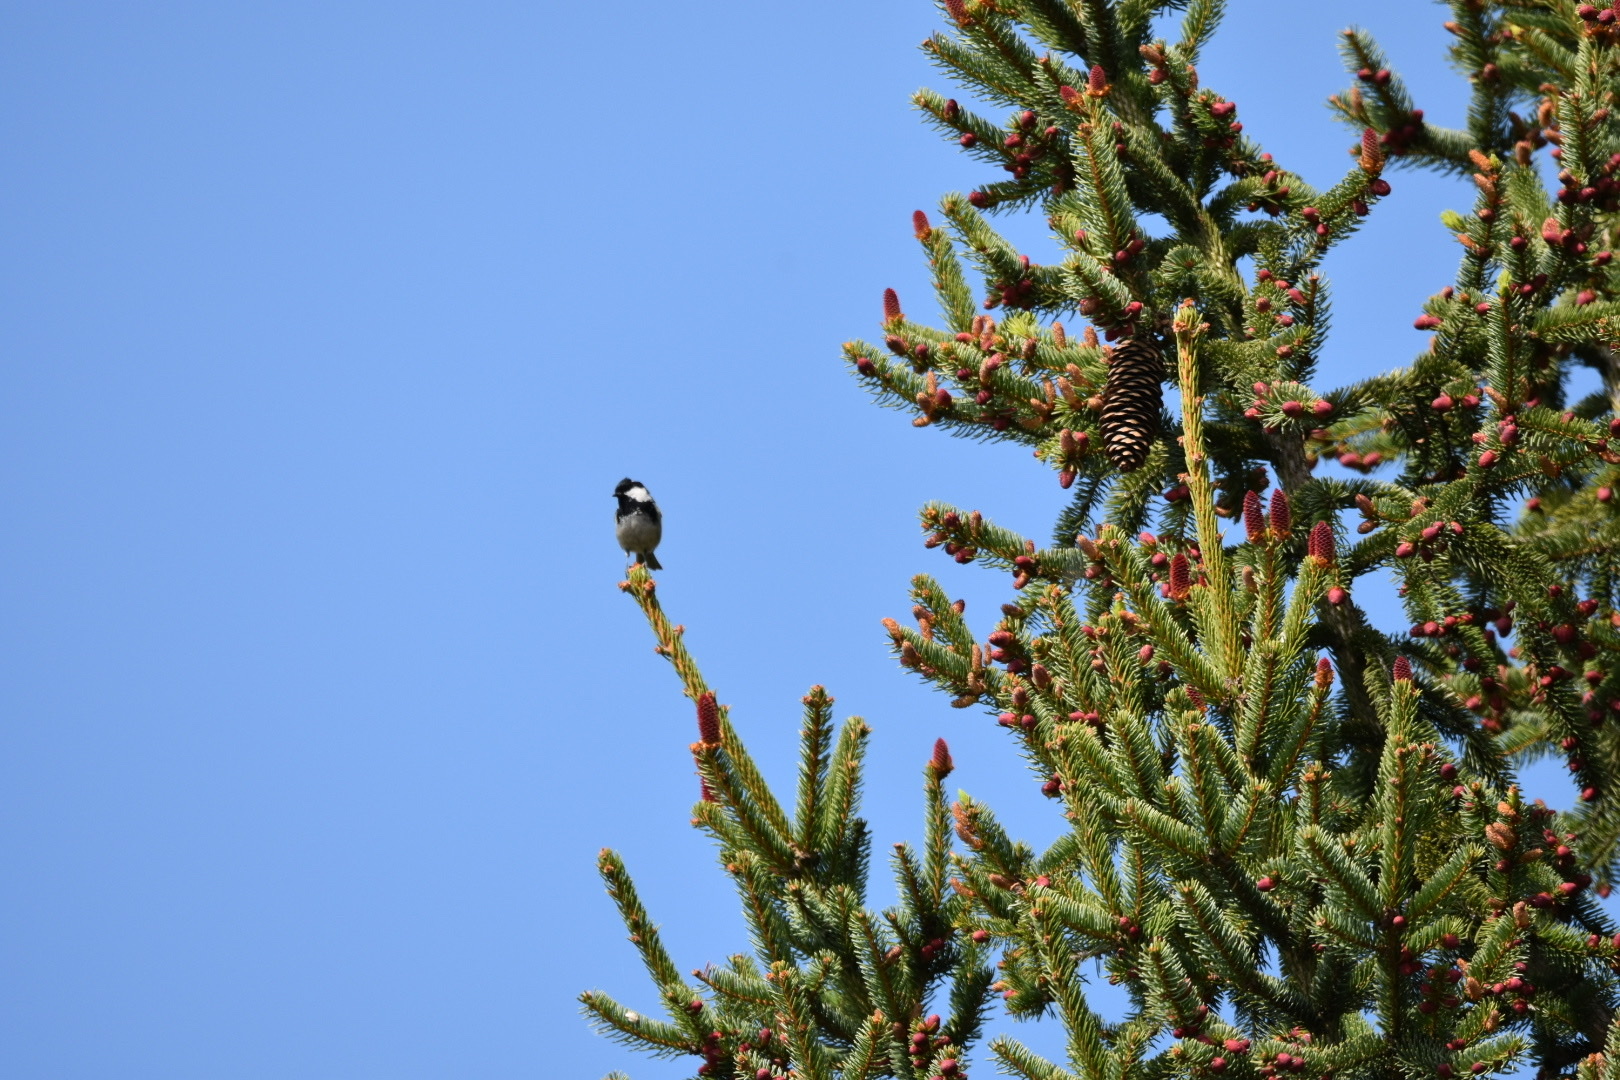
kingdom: Animalia
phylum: Chordata
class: Aves
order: Passeriformes
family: Paridae
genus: Periparus
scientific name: Periparus ater
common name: Coal tit
